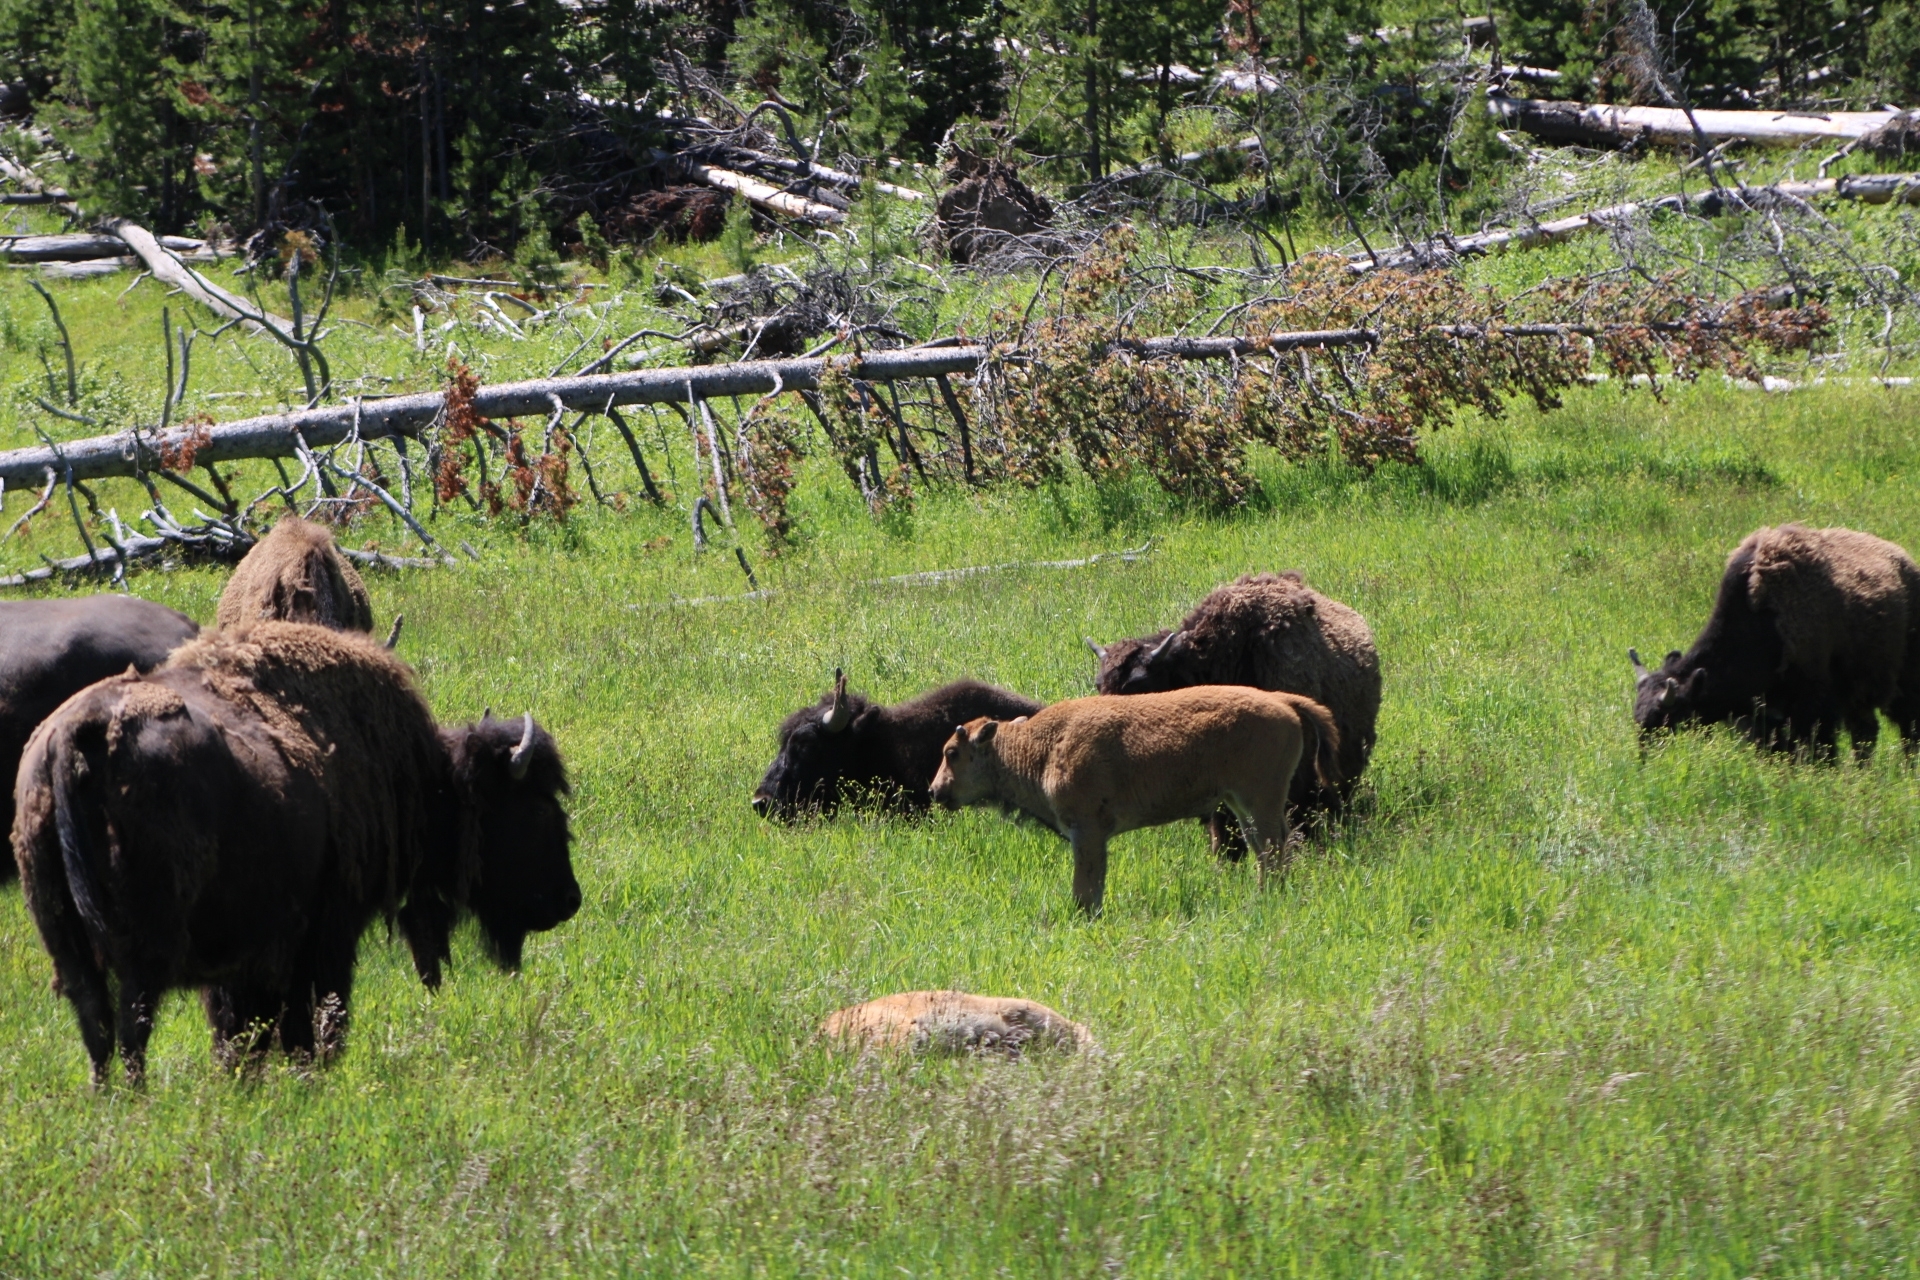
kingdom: Animalia
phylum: Chordata
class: Mammalia
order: Artiodactyla
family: Bovidae
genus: Bison
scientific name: Bison bison
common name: American bison
